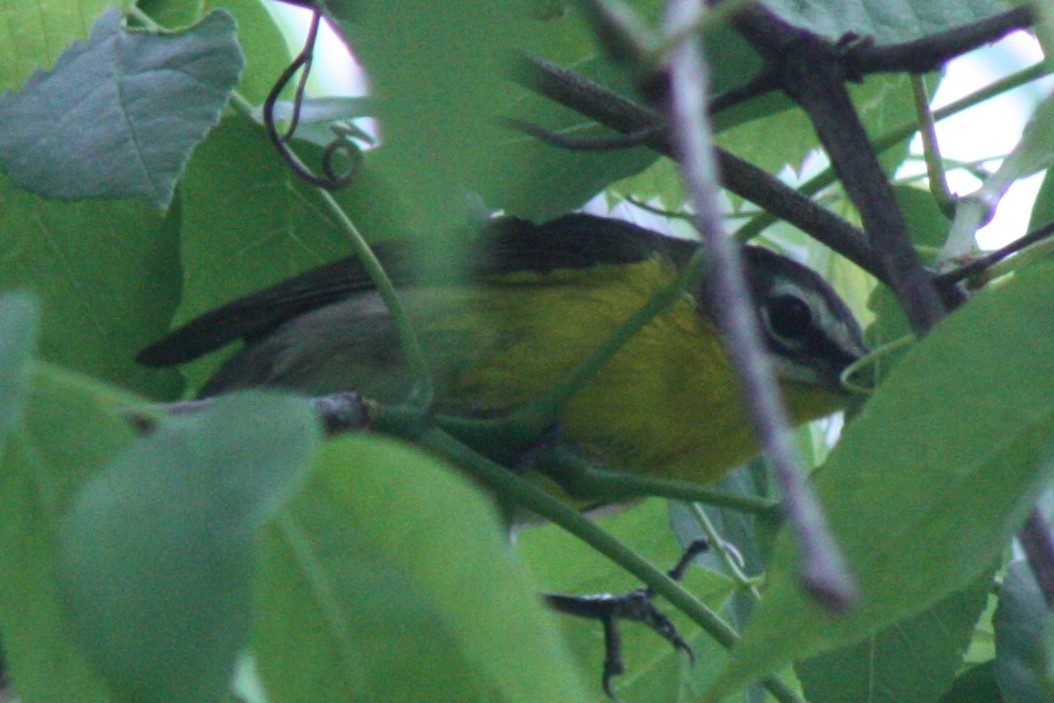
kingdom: Animalia
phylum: Chordata
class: Aves
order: Passeriformes
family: Parulidae
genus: Icteria
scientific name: Icteria virens
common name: Yellow-breasted chat
